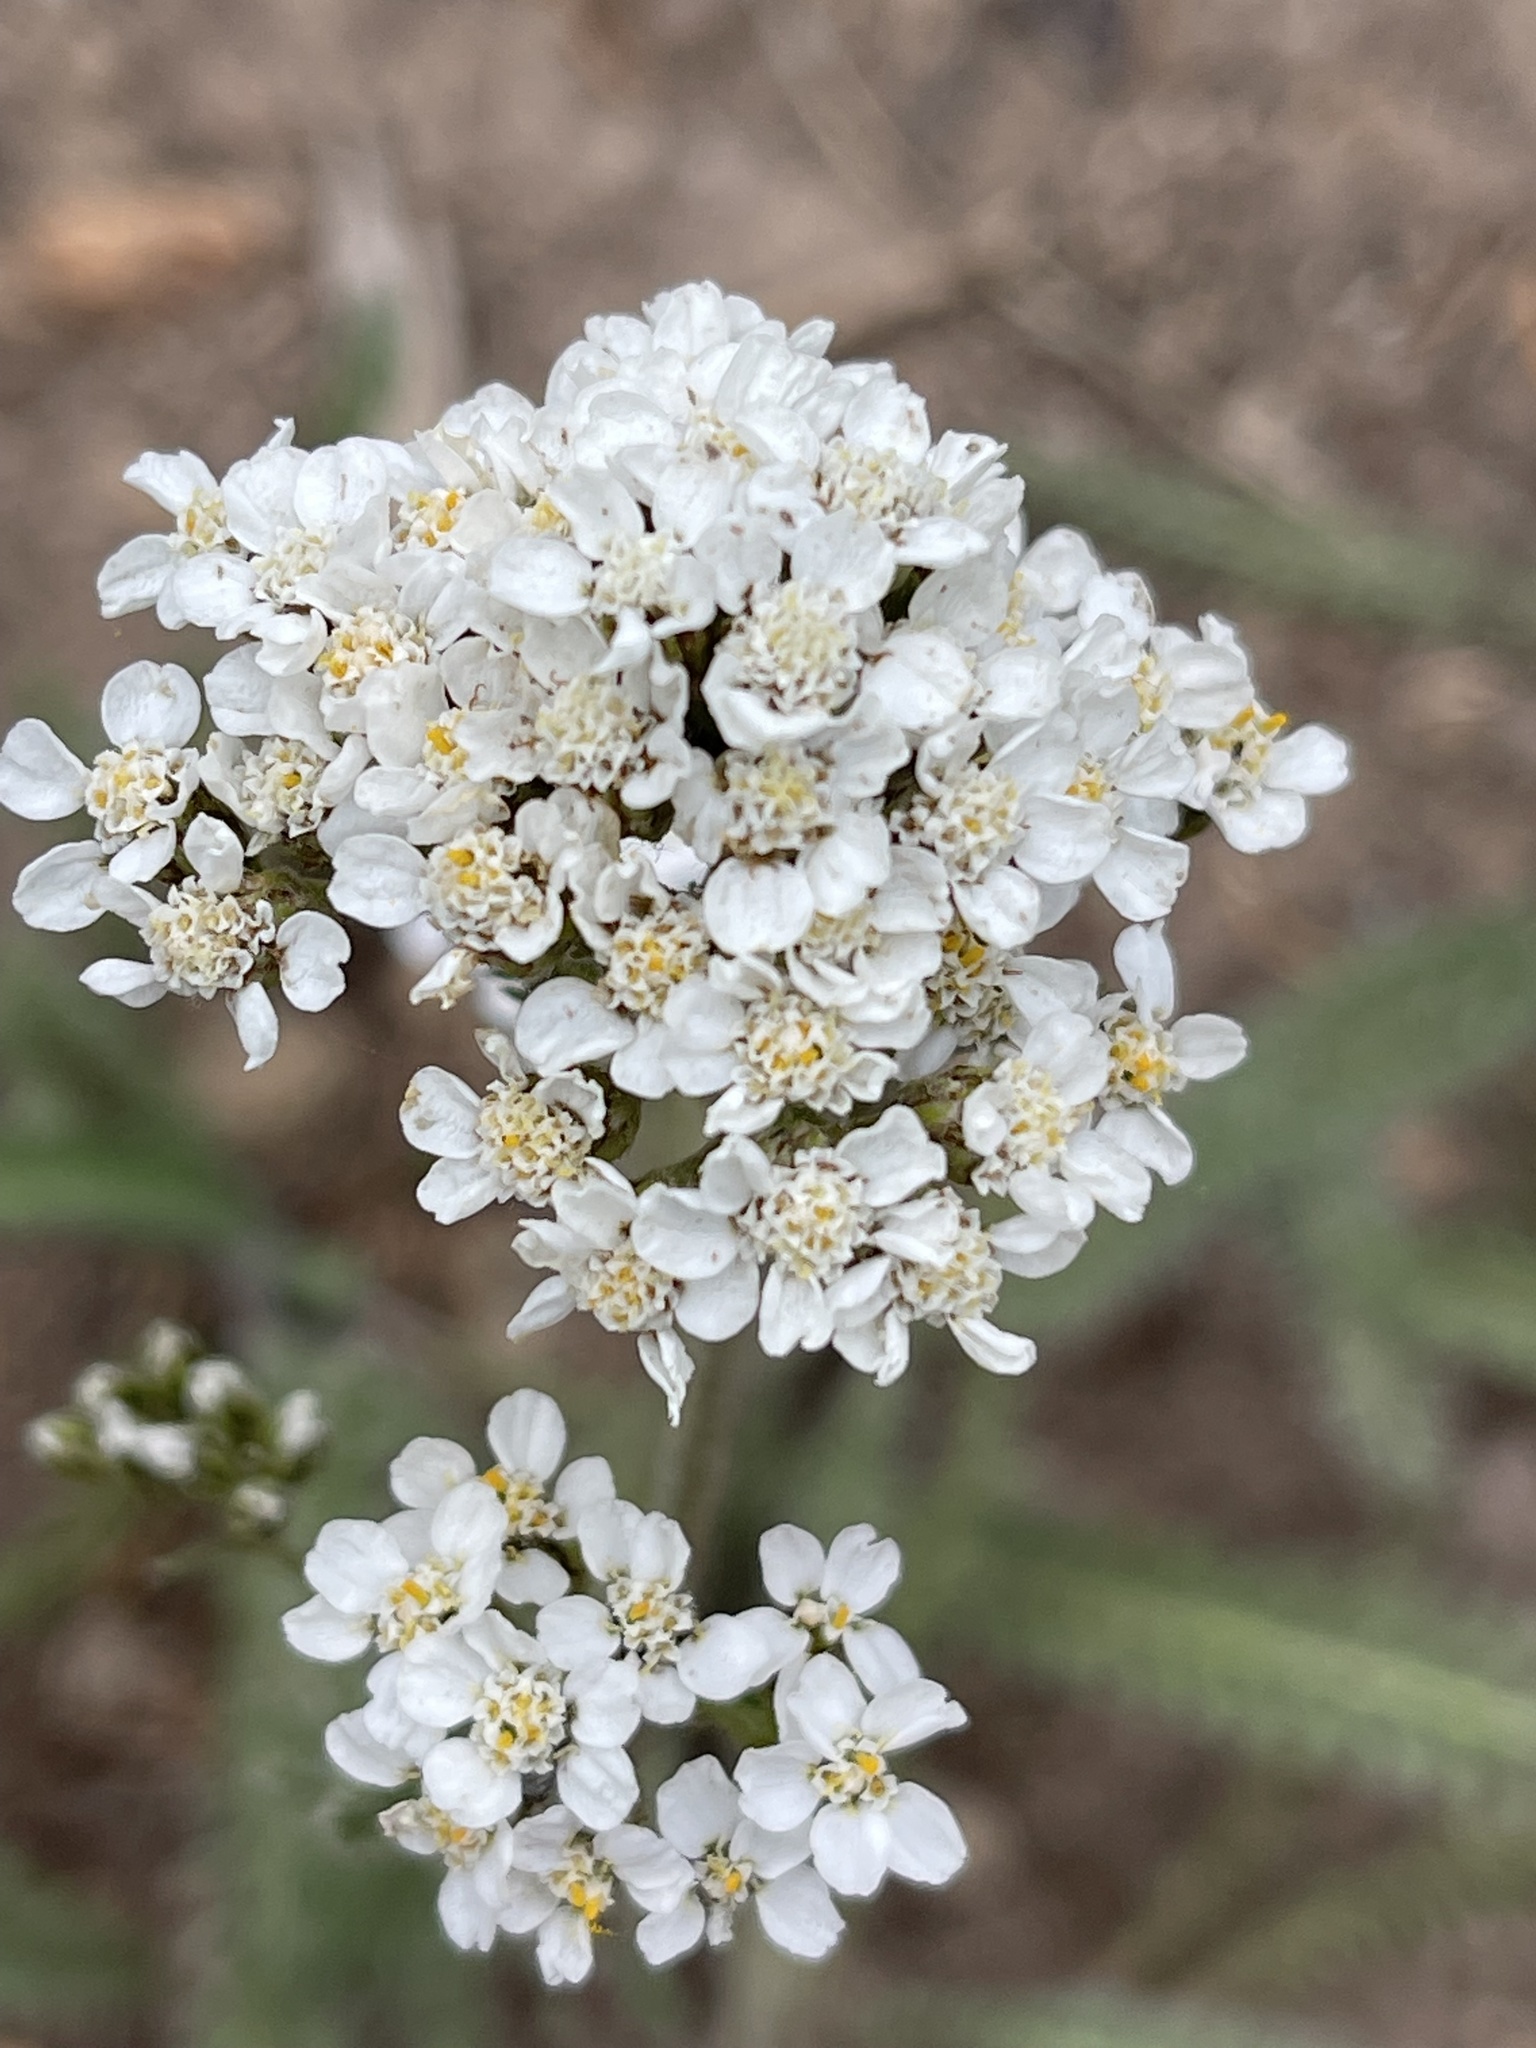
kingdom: Plantae
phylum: Tracheophyta
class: Magnoliopsida
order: Asterales
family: Asteraceae
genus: Achillea
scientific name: Achillea millefolium
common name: Yarrow
